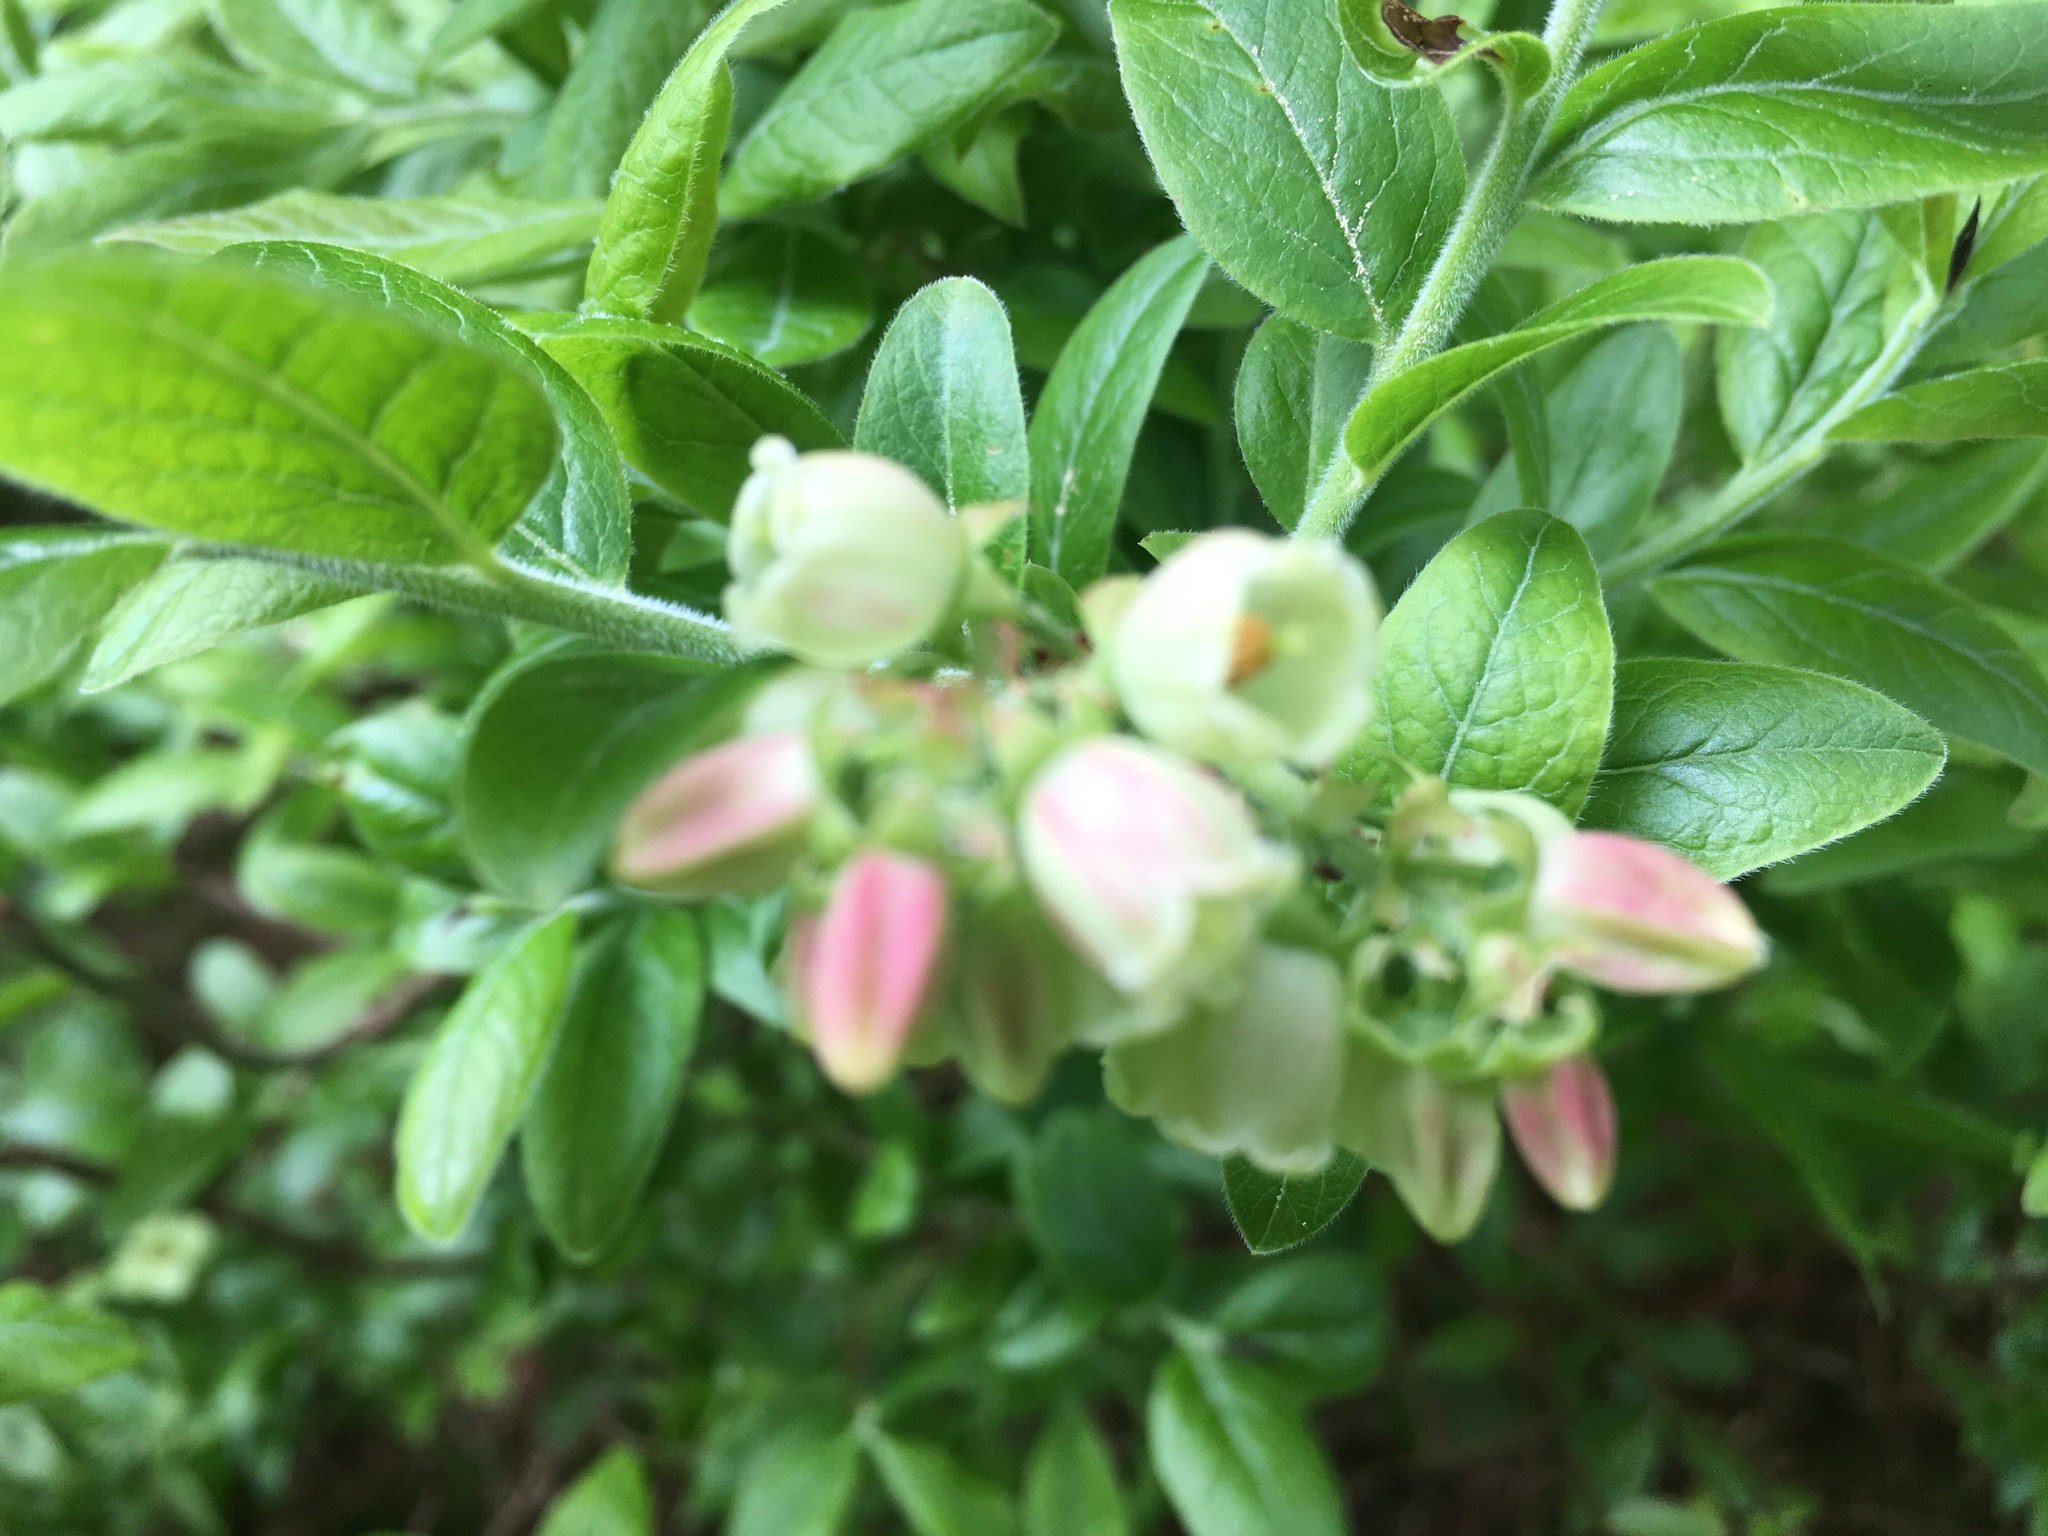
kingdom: Plantae
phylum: Tracheophyta
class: Magnoliopsida
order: Ericales
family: Ericaceae
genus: Vaccinium
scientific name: Vaccinium angustifolium
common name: Early lowbush blueberry
